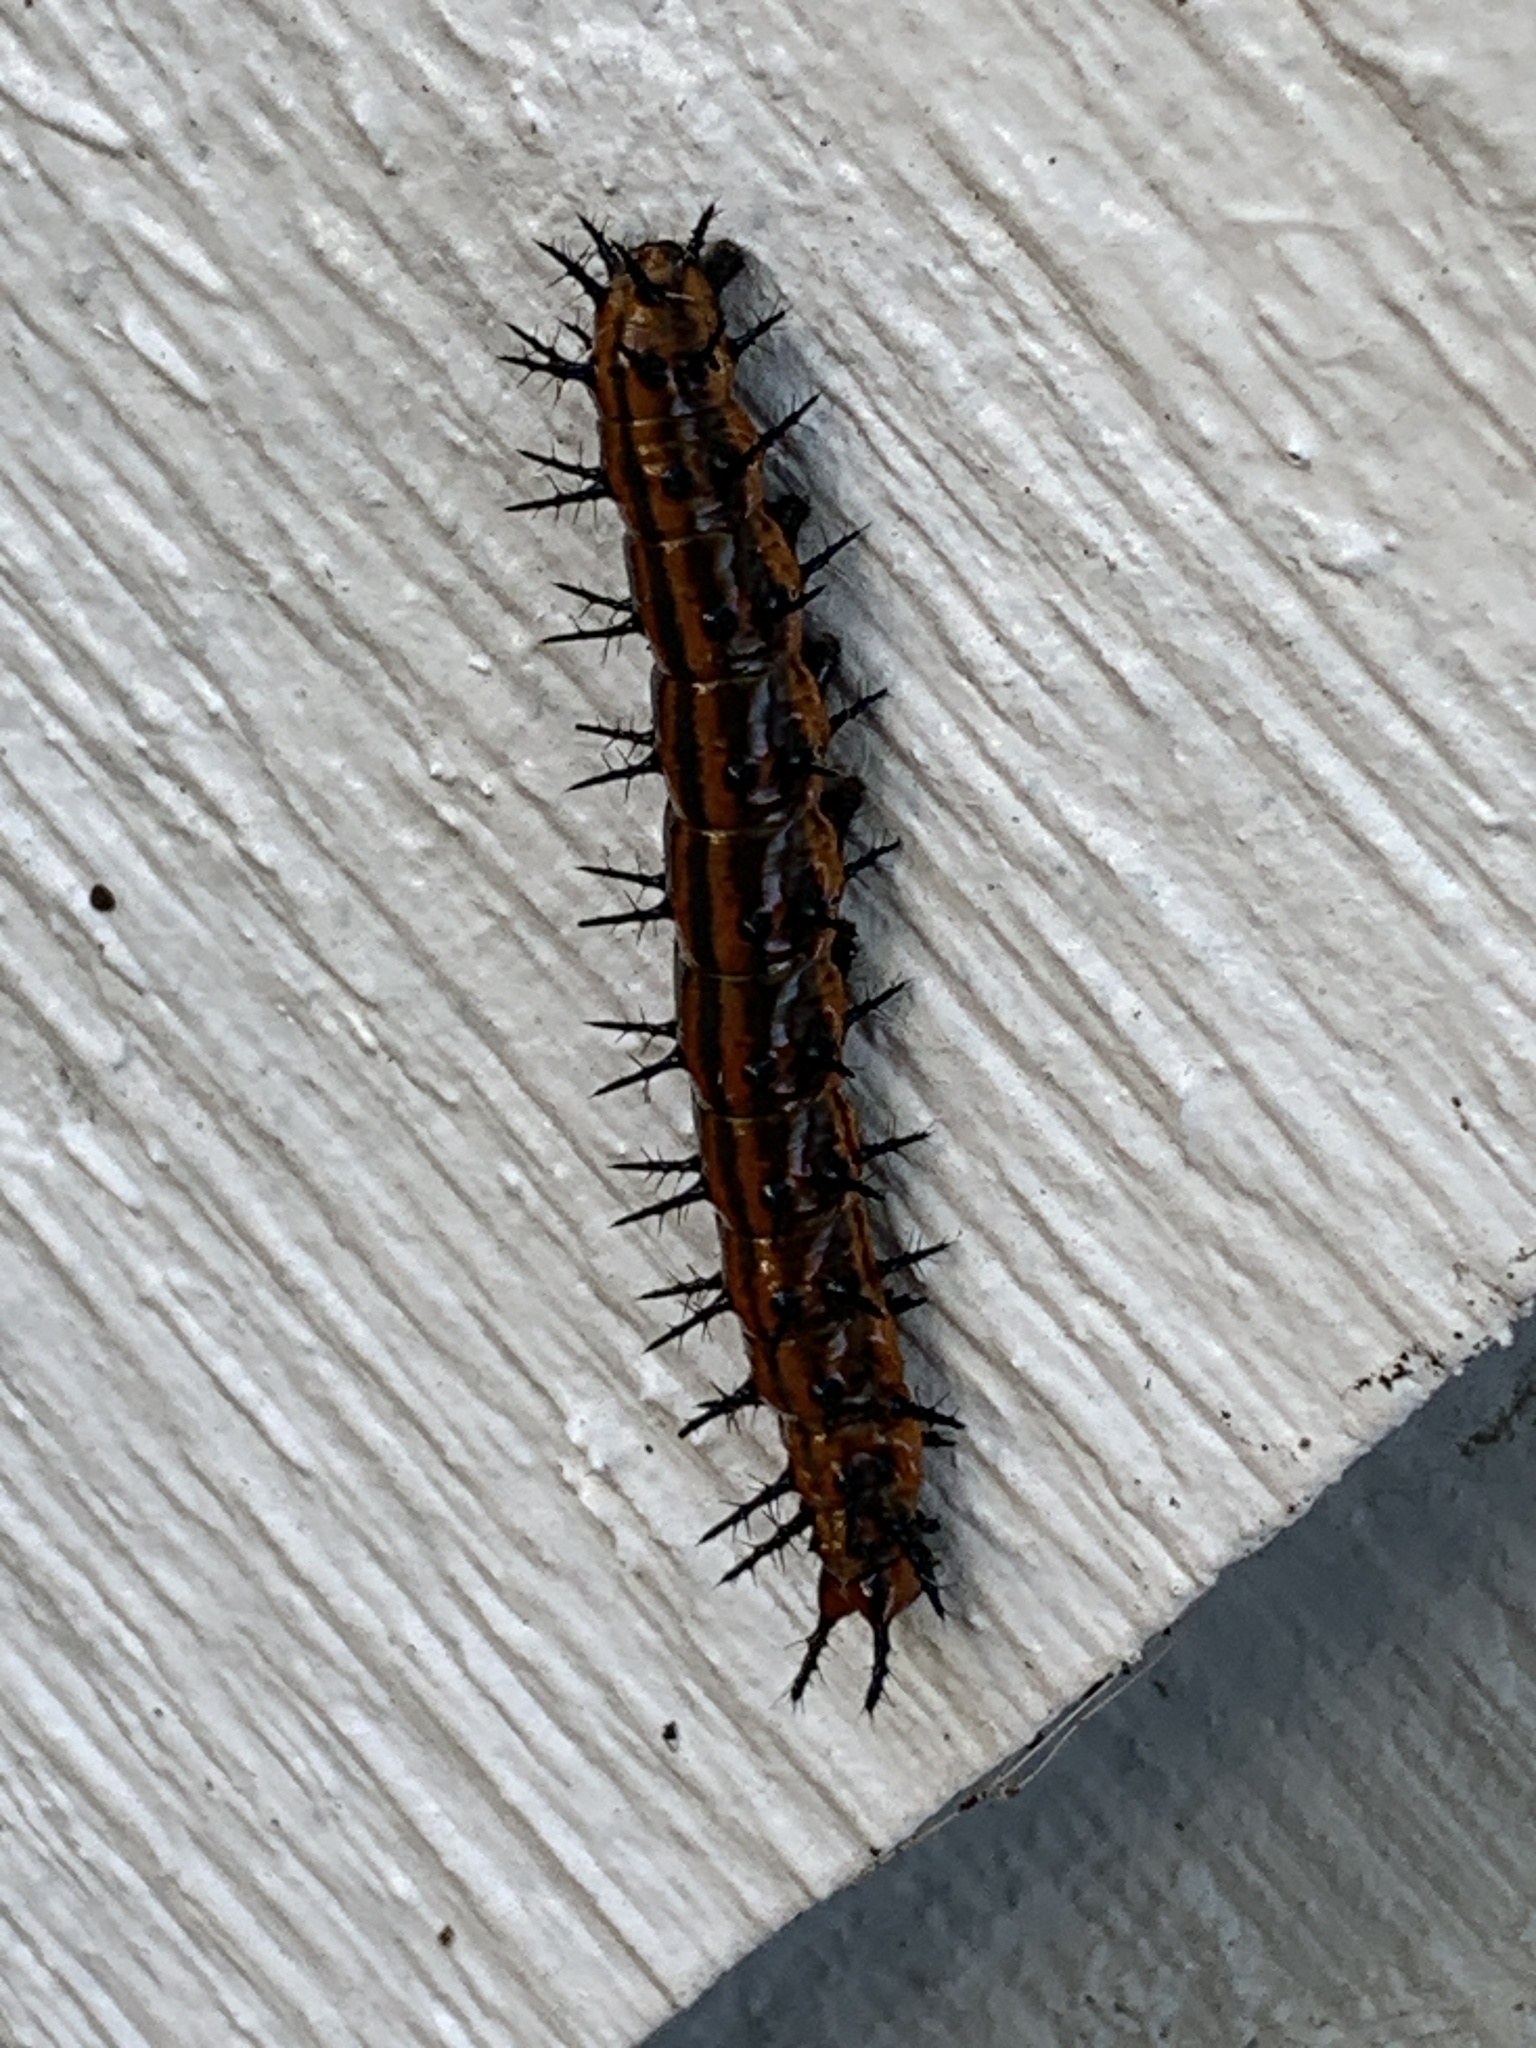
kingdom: Animalia
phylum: Arthropoda
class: Insecta
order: Lepidoptera
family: Nymphalidae
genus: Dione
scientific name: Dione vanillae
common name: Gulf fritillary
